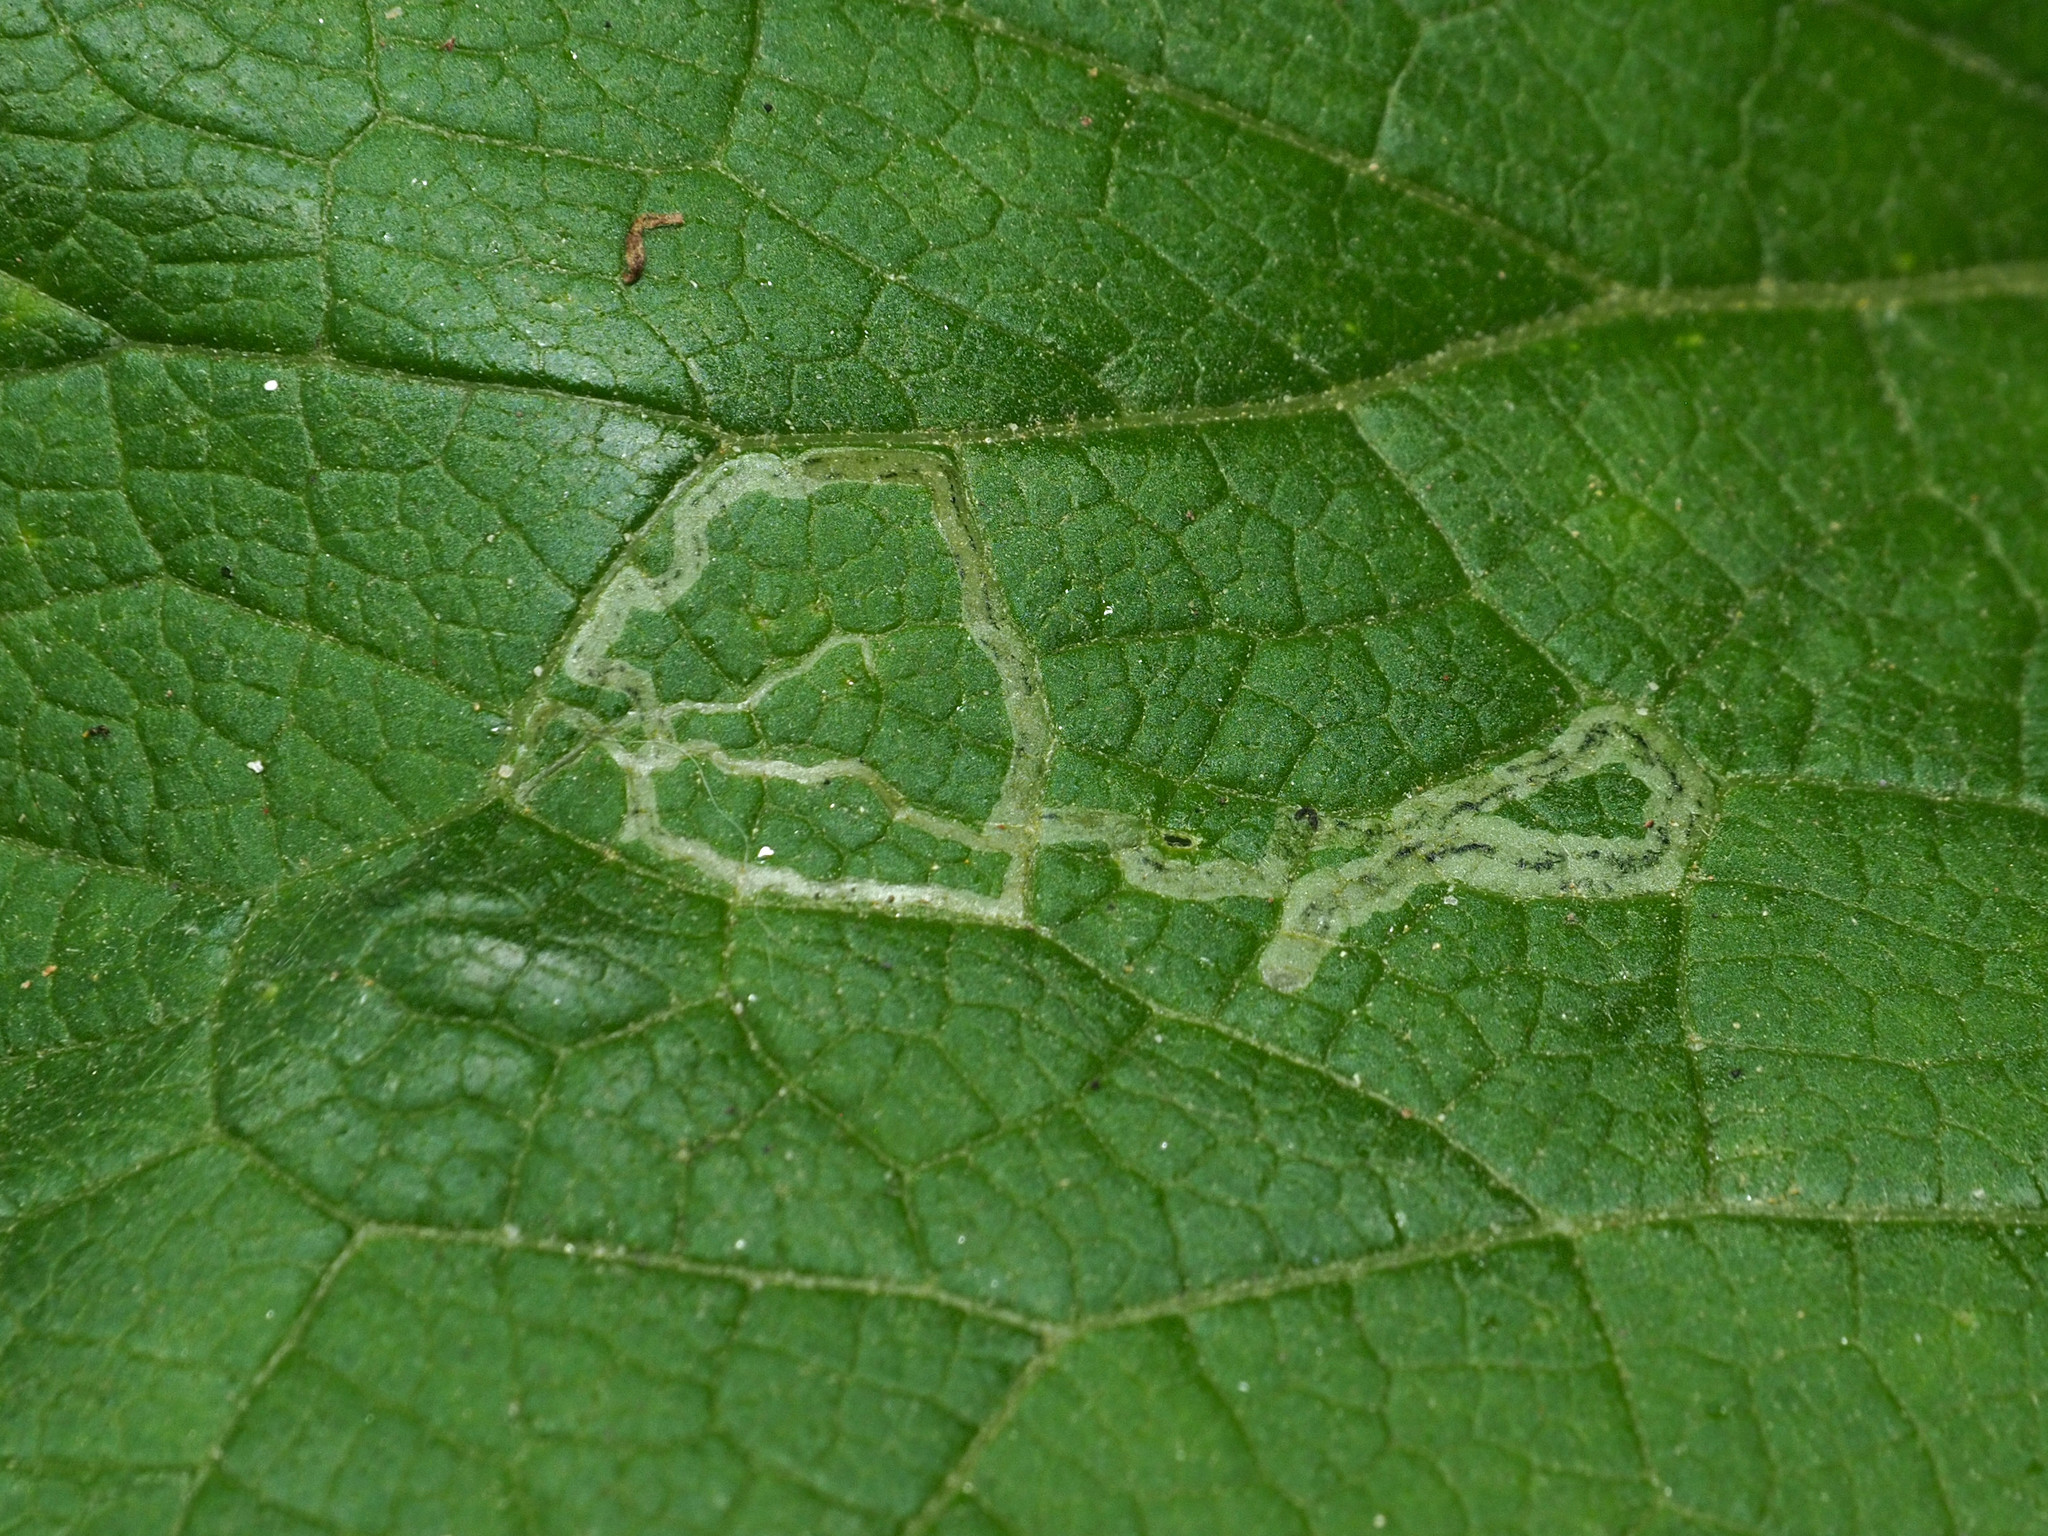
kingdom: Animalia
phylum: Arthropoda
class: Insecta
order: Diptera
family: Agromyzidae
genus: Liriomyza
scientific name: Liriomyza arctii
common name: Burdock leafminer
